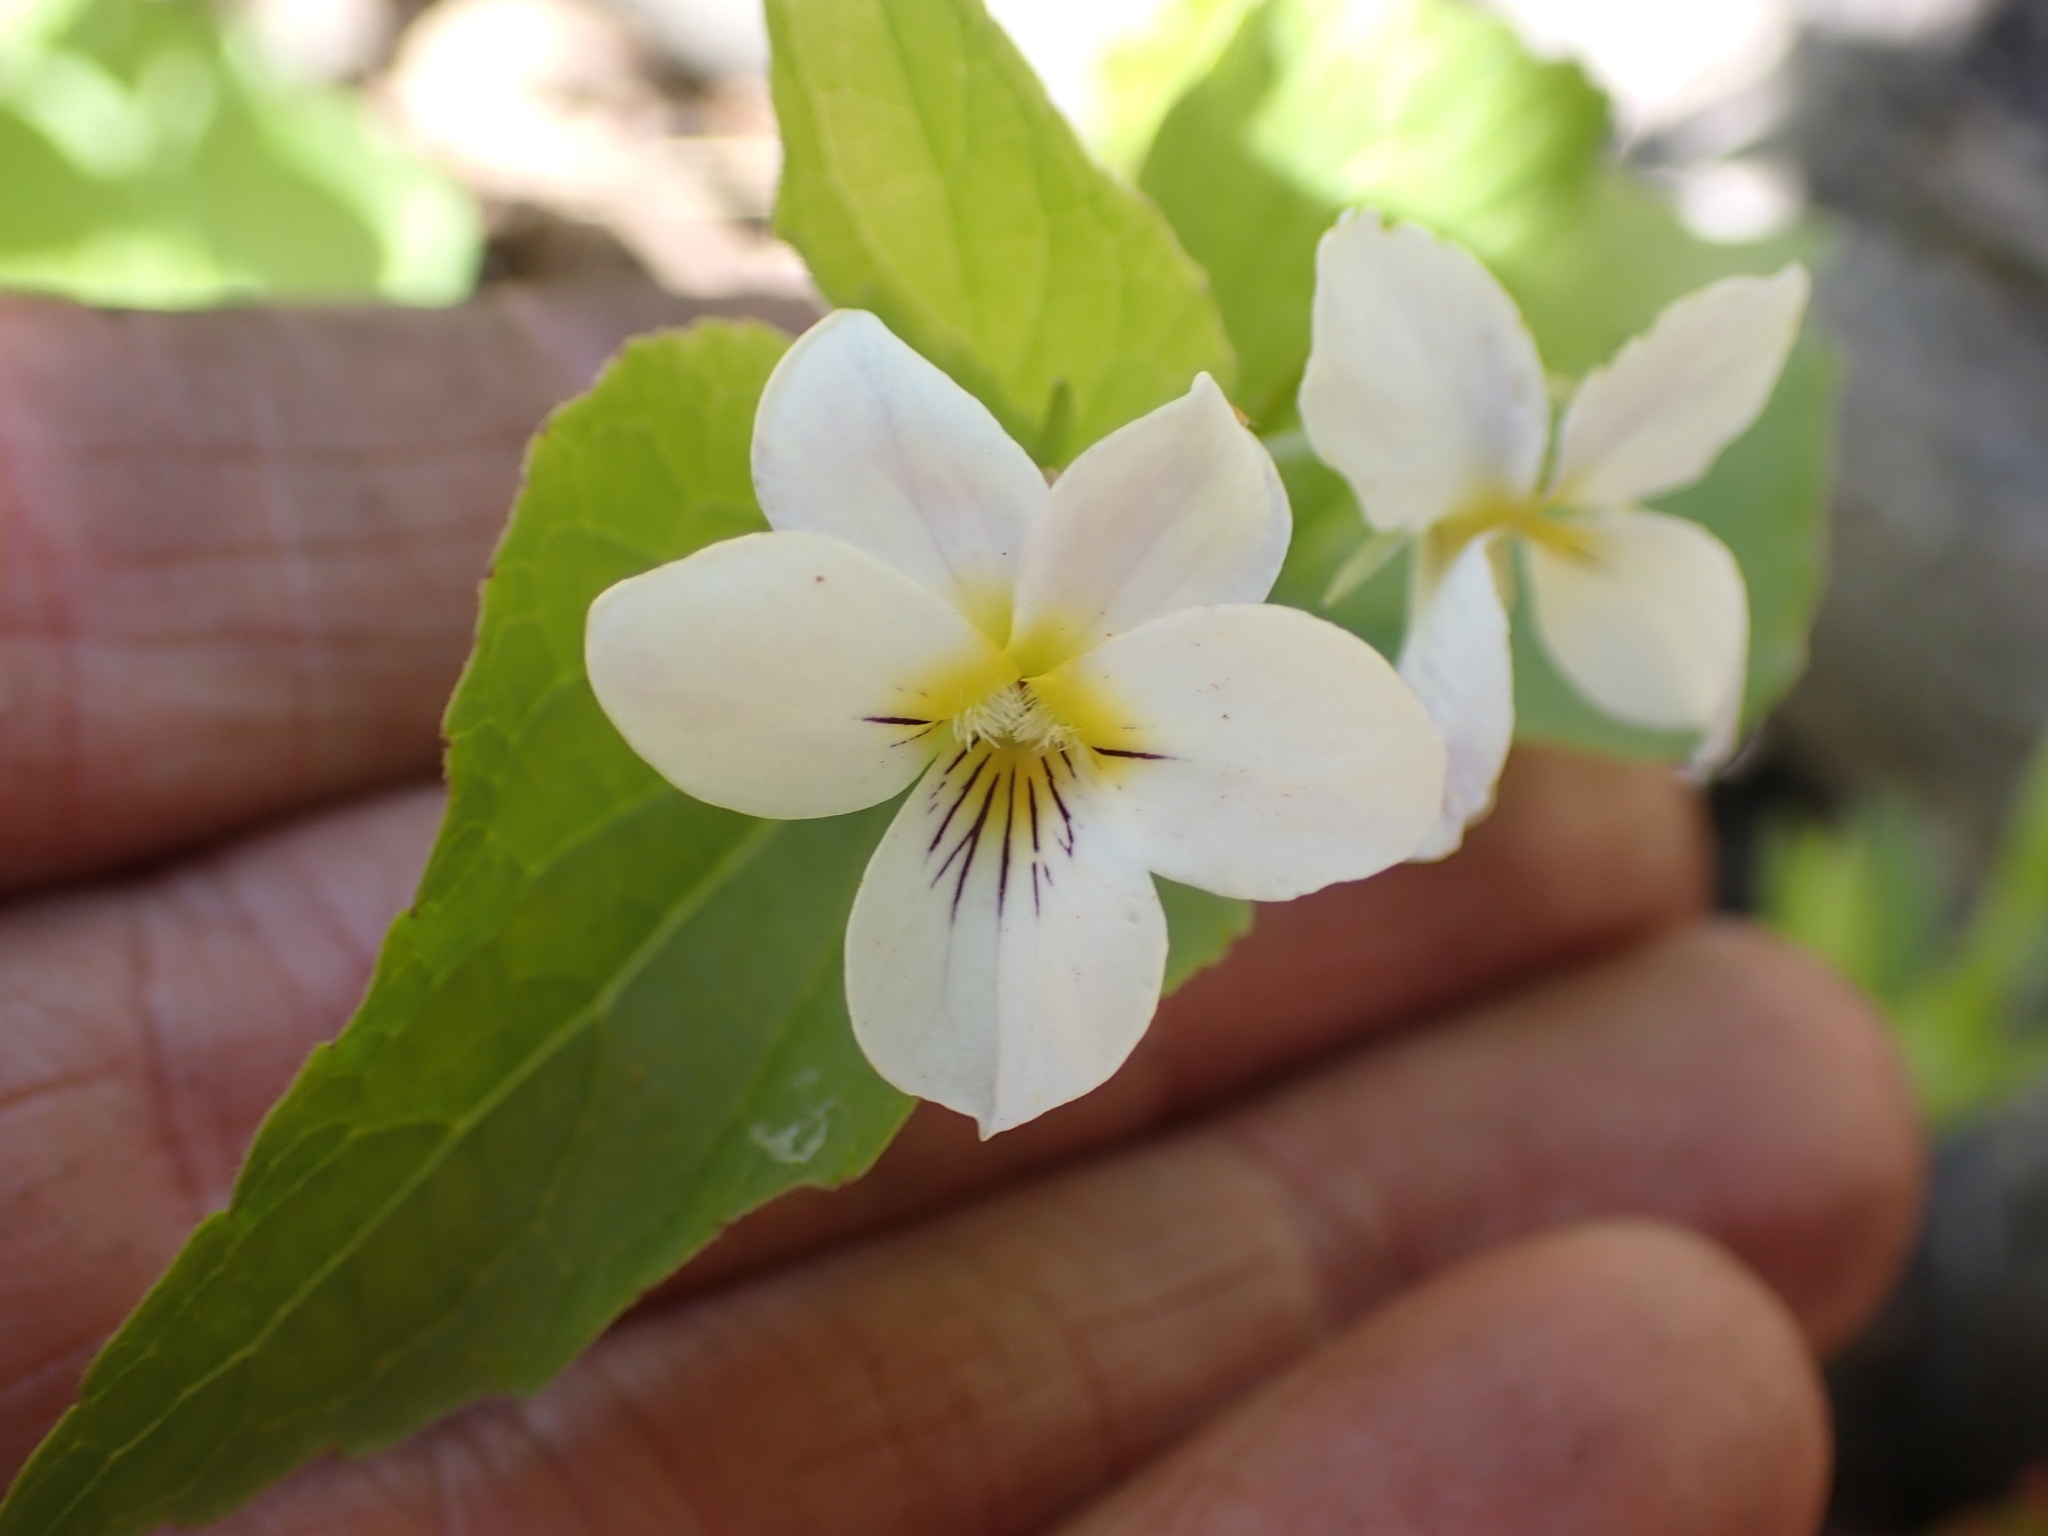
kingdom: Plantae
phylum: Tracheophyta
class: Magnoliopsida
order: Malpighiales
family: Violaceae
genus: Viola
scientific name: Viola canadensis
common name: Canada violet
